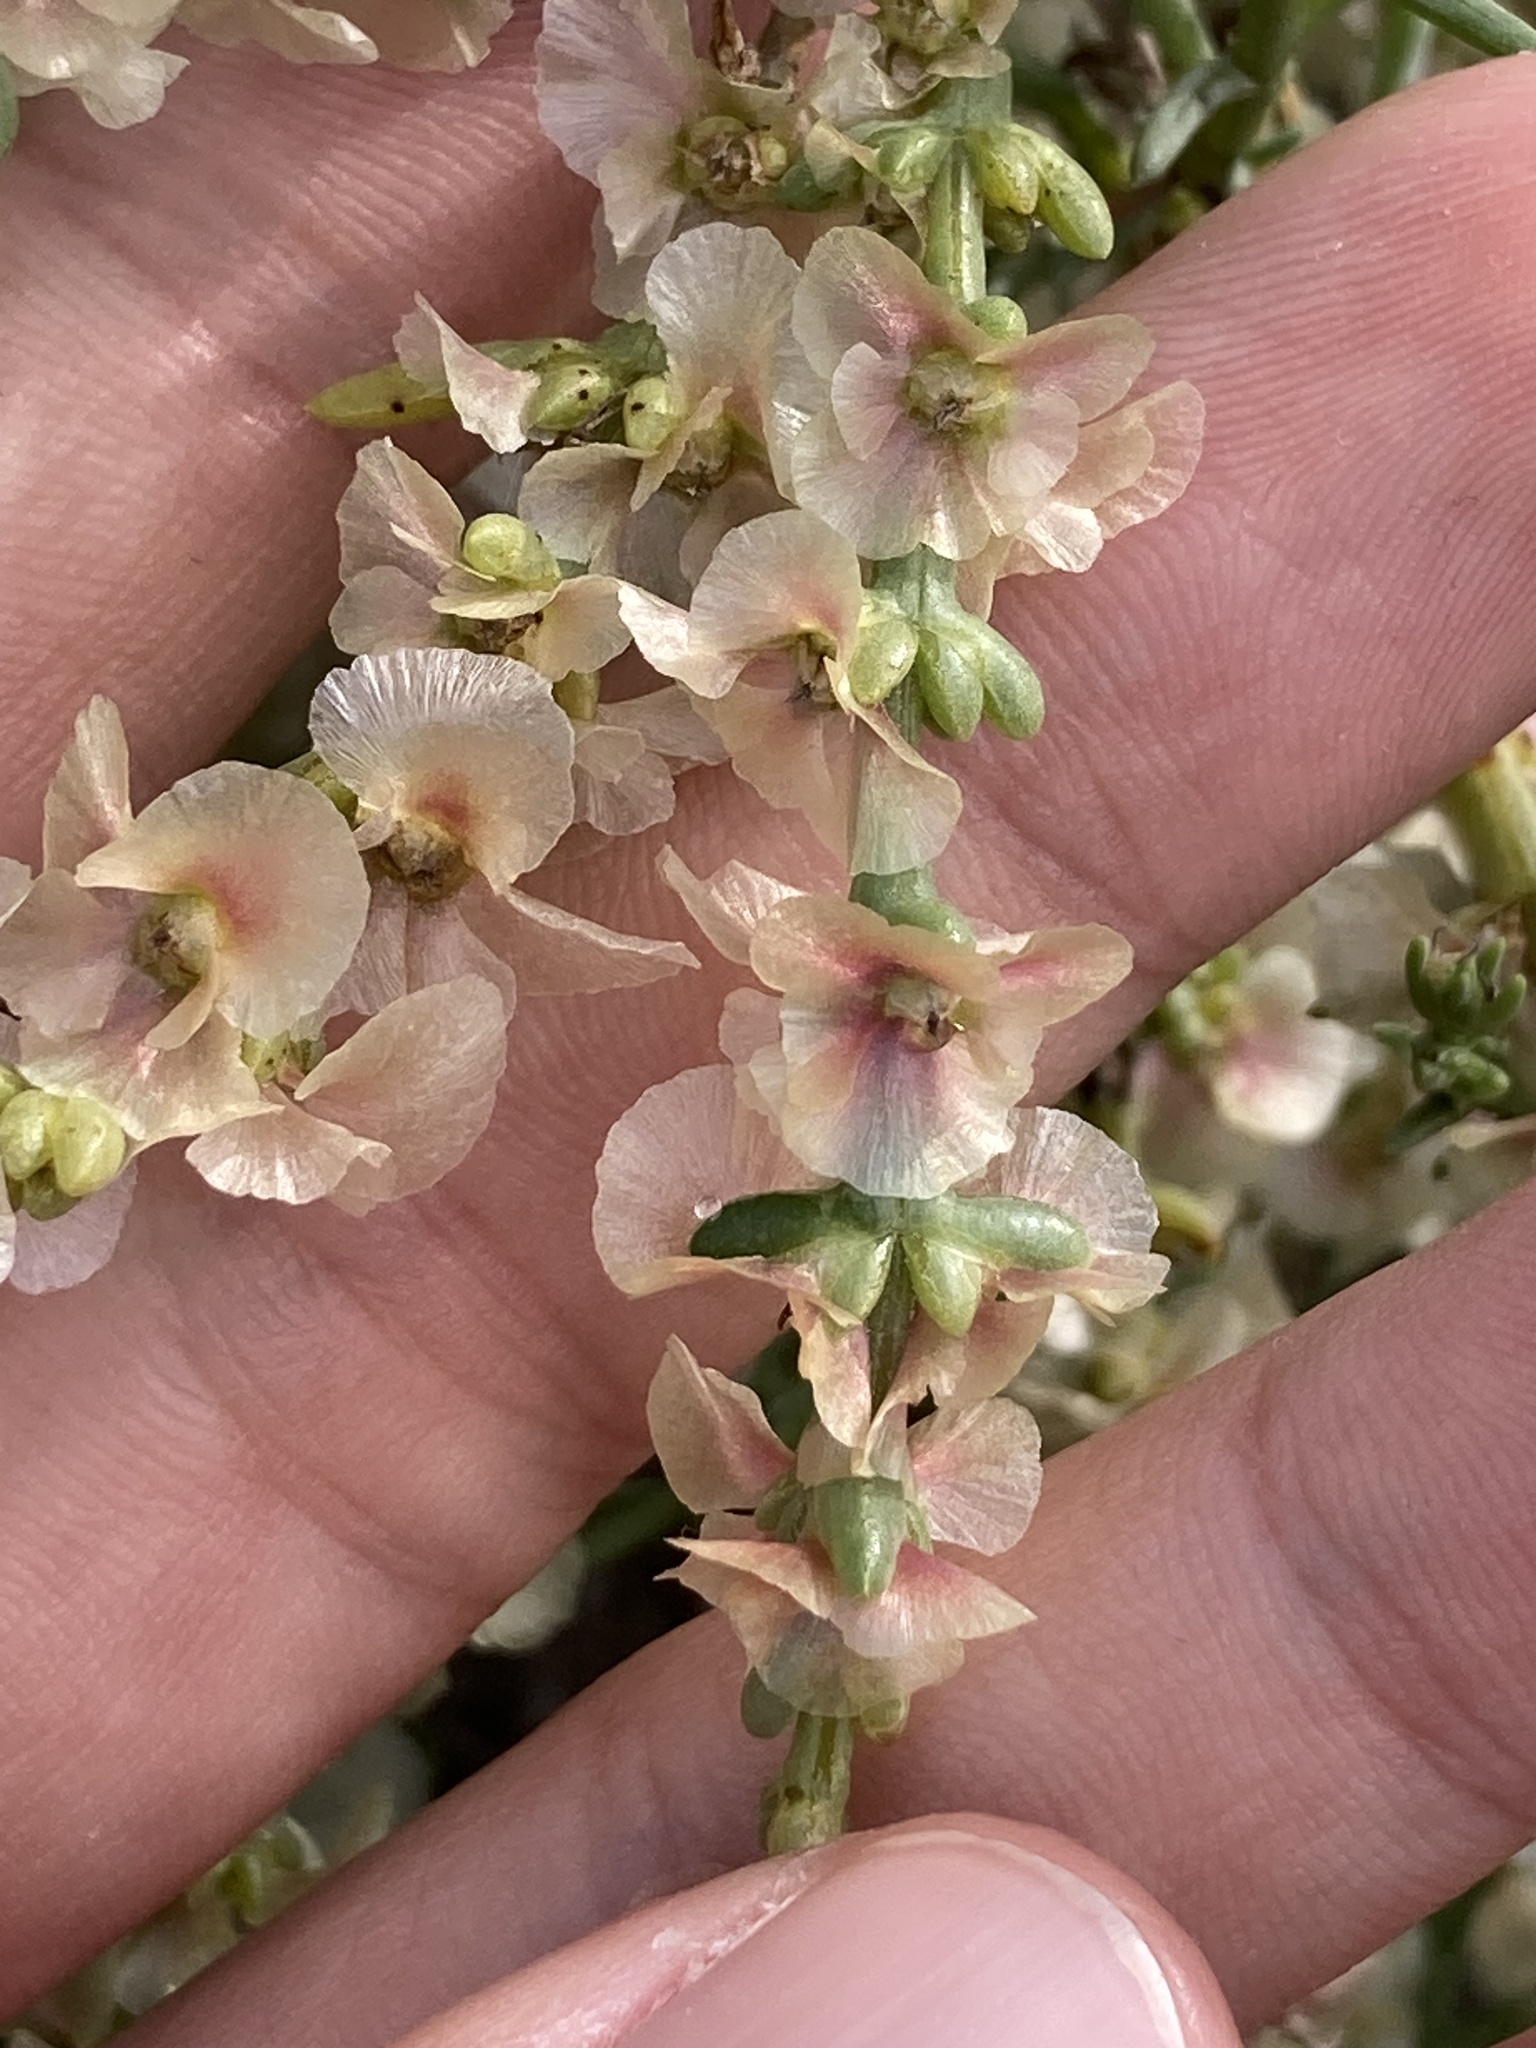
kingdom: Plantae
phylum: Tracheophyta
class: Magnoliopsida
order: Caryophyllales
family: Amaranthaceae
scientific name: Amaranthaceae
